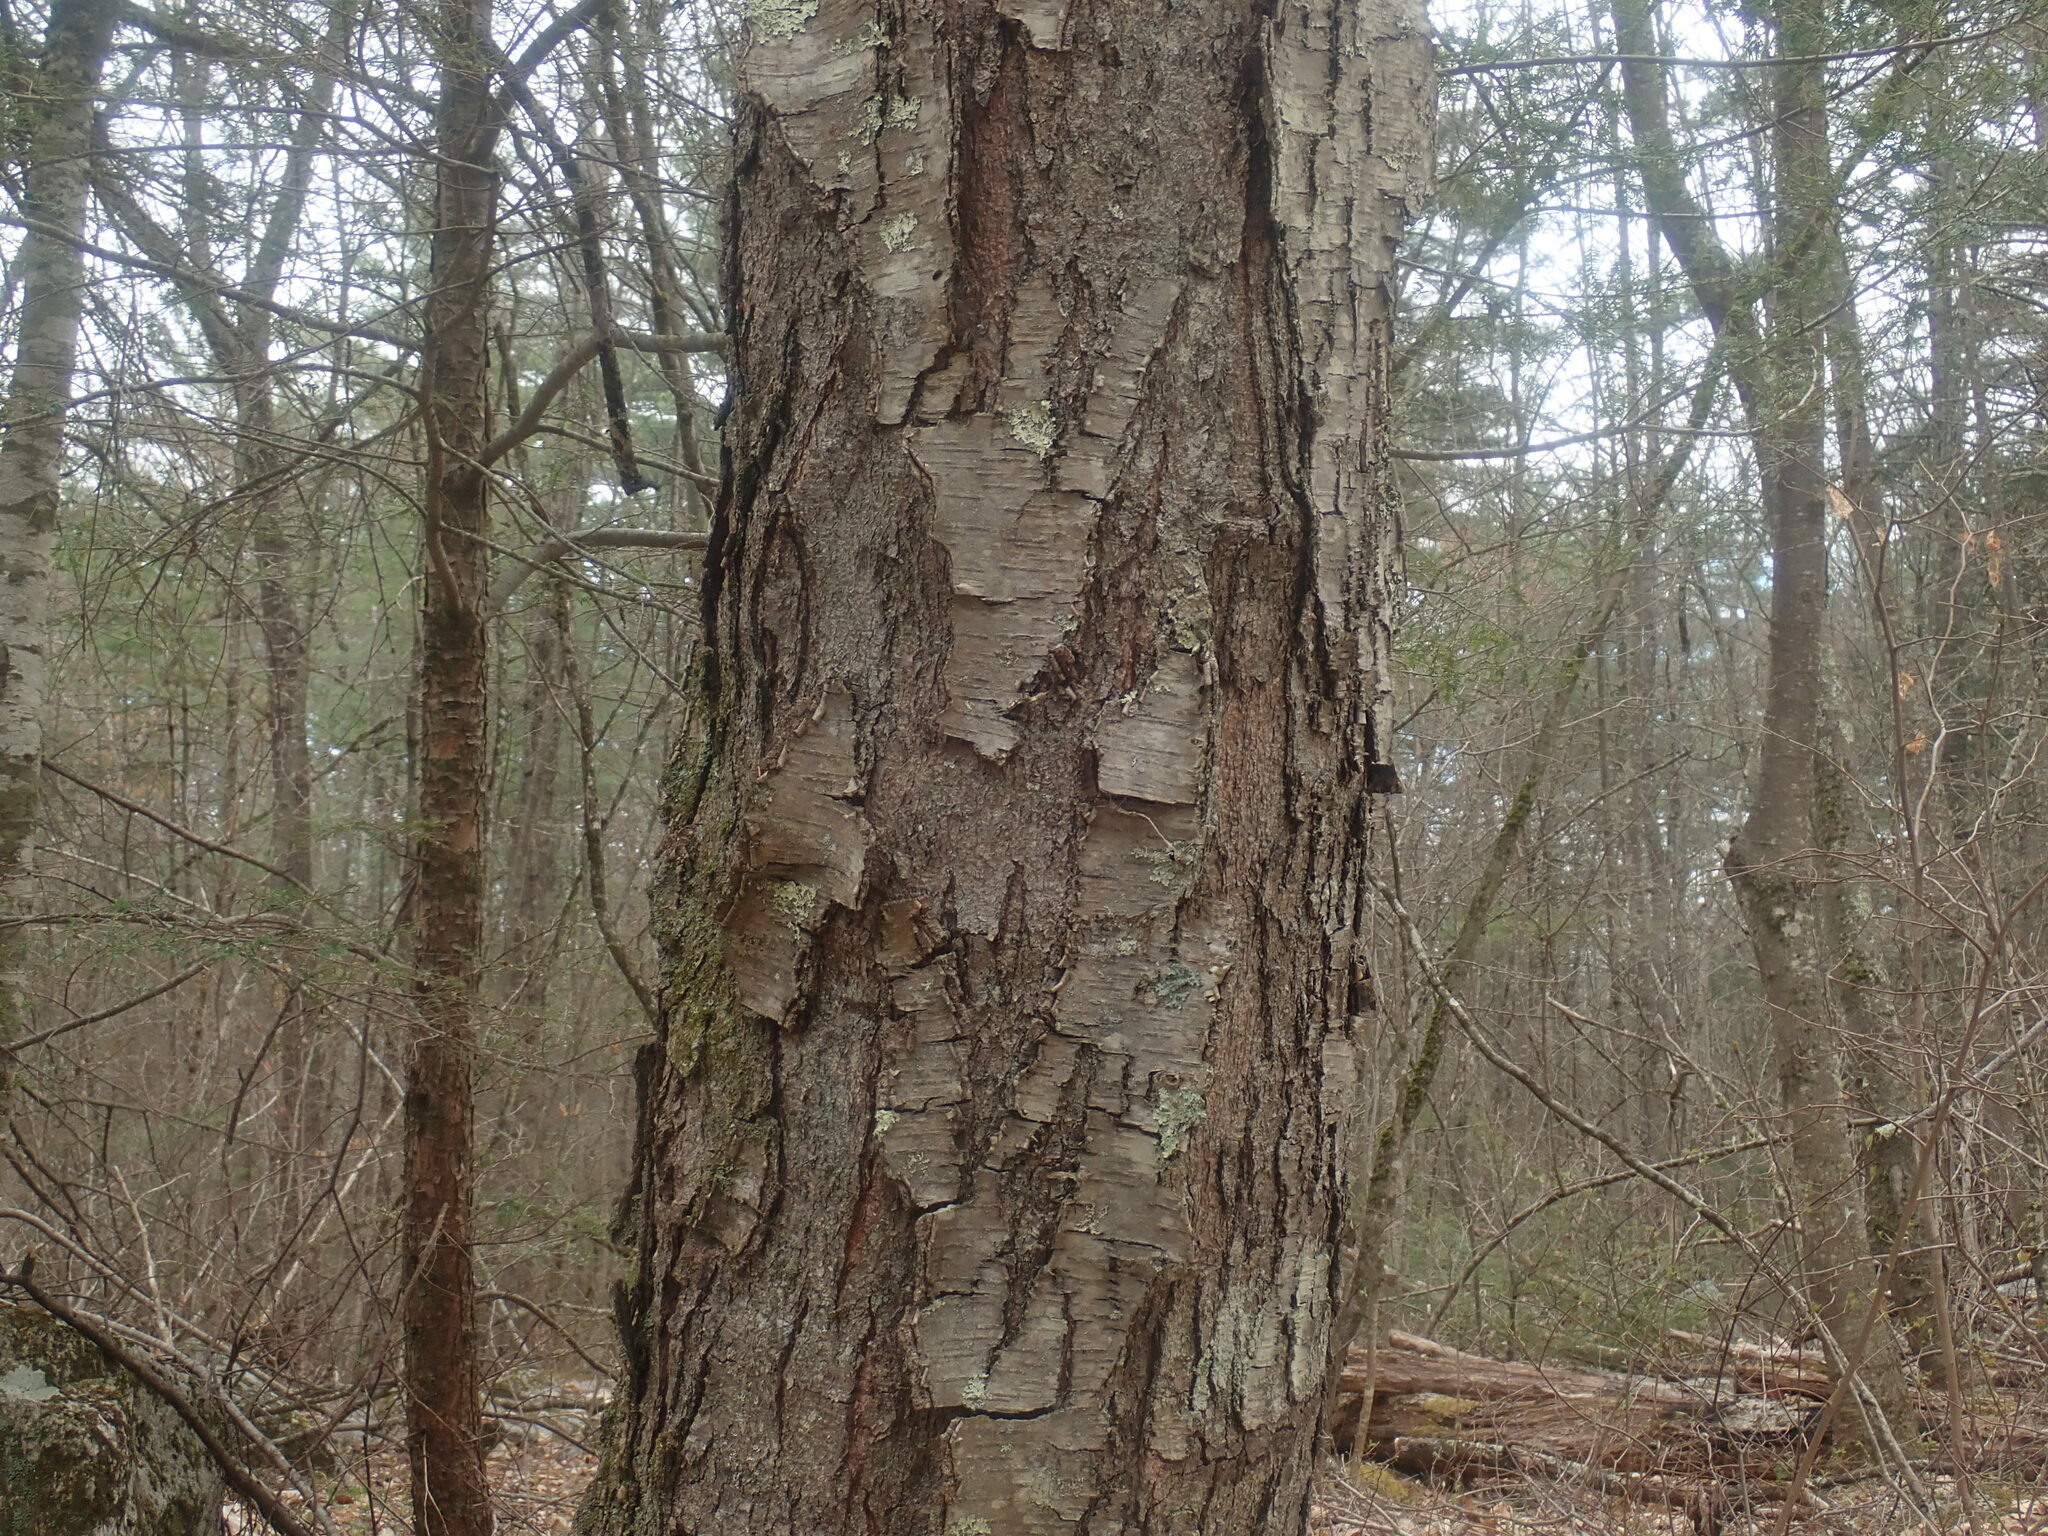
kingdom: Plantae
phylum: Tracheophyta
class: Magnoliopsida
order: Fagales
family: Betulaceae
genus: Betula
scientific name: Betula lenta
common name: Black birch
